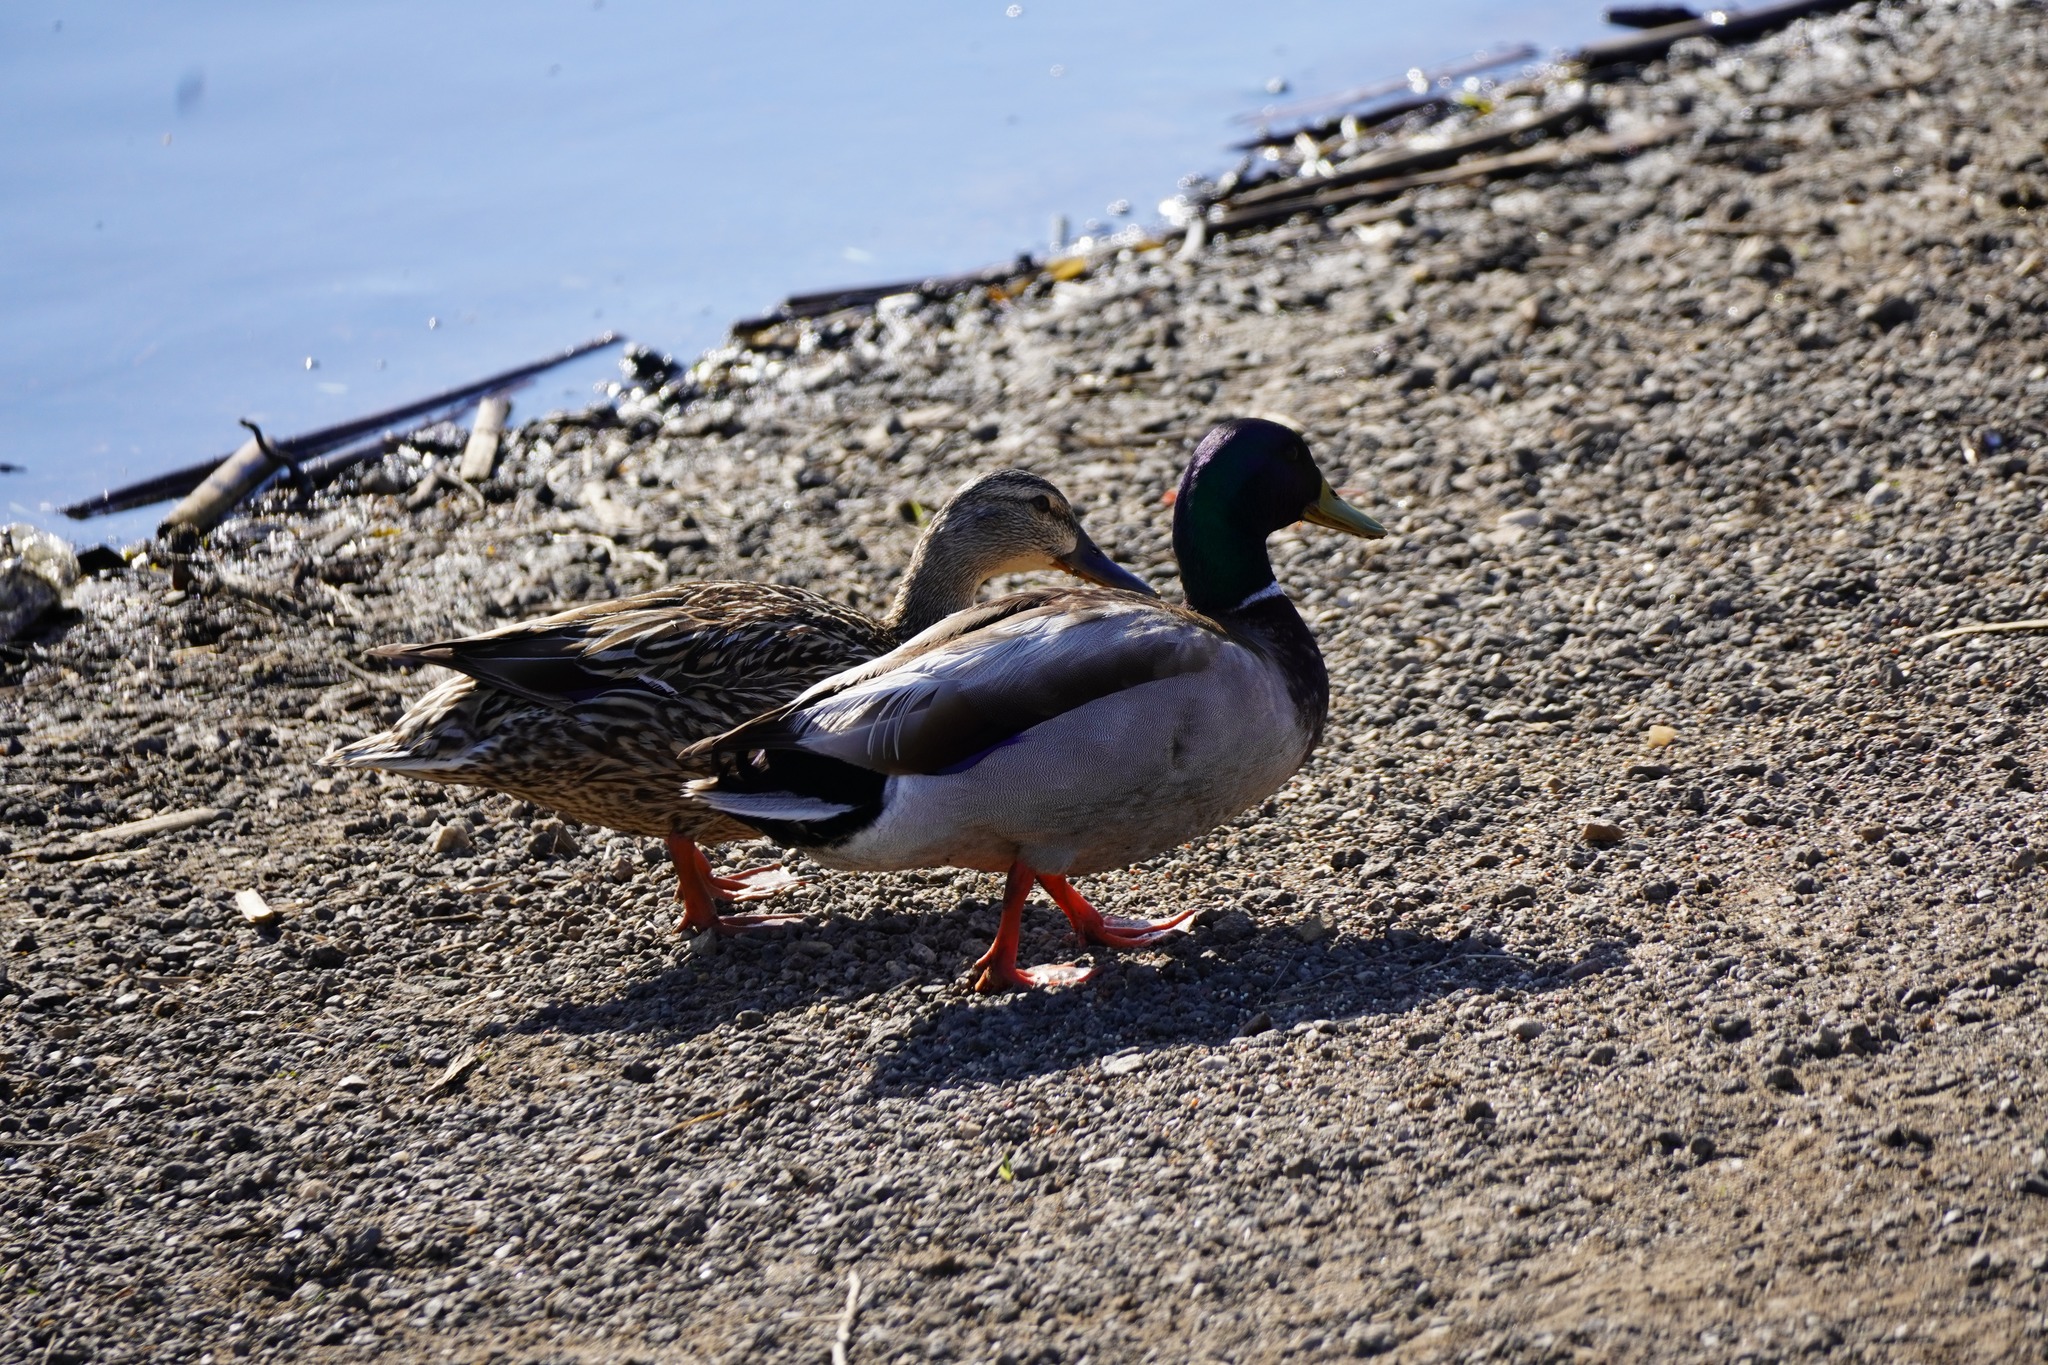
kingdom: Animalia
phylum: Chordata
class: Aves
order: Anseriformes
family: Anatidae
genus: Anas
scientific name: Anas platyrhynchos
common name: Mallard
